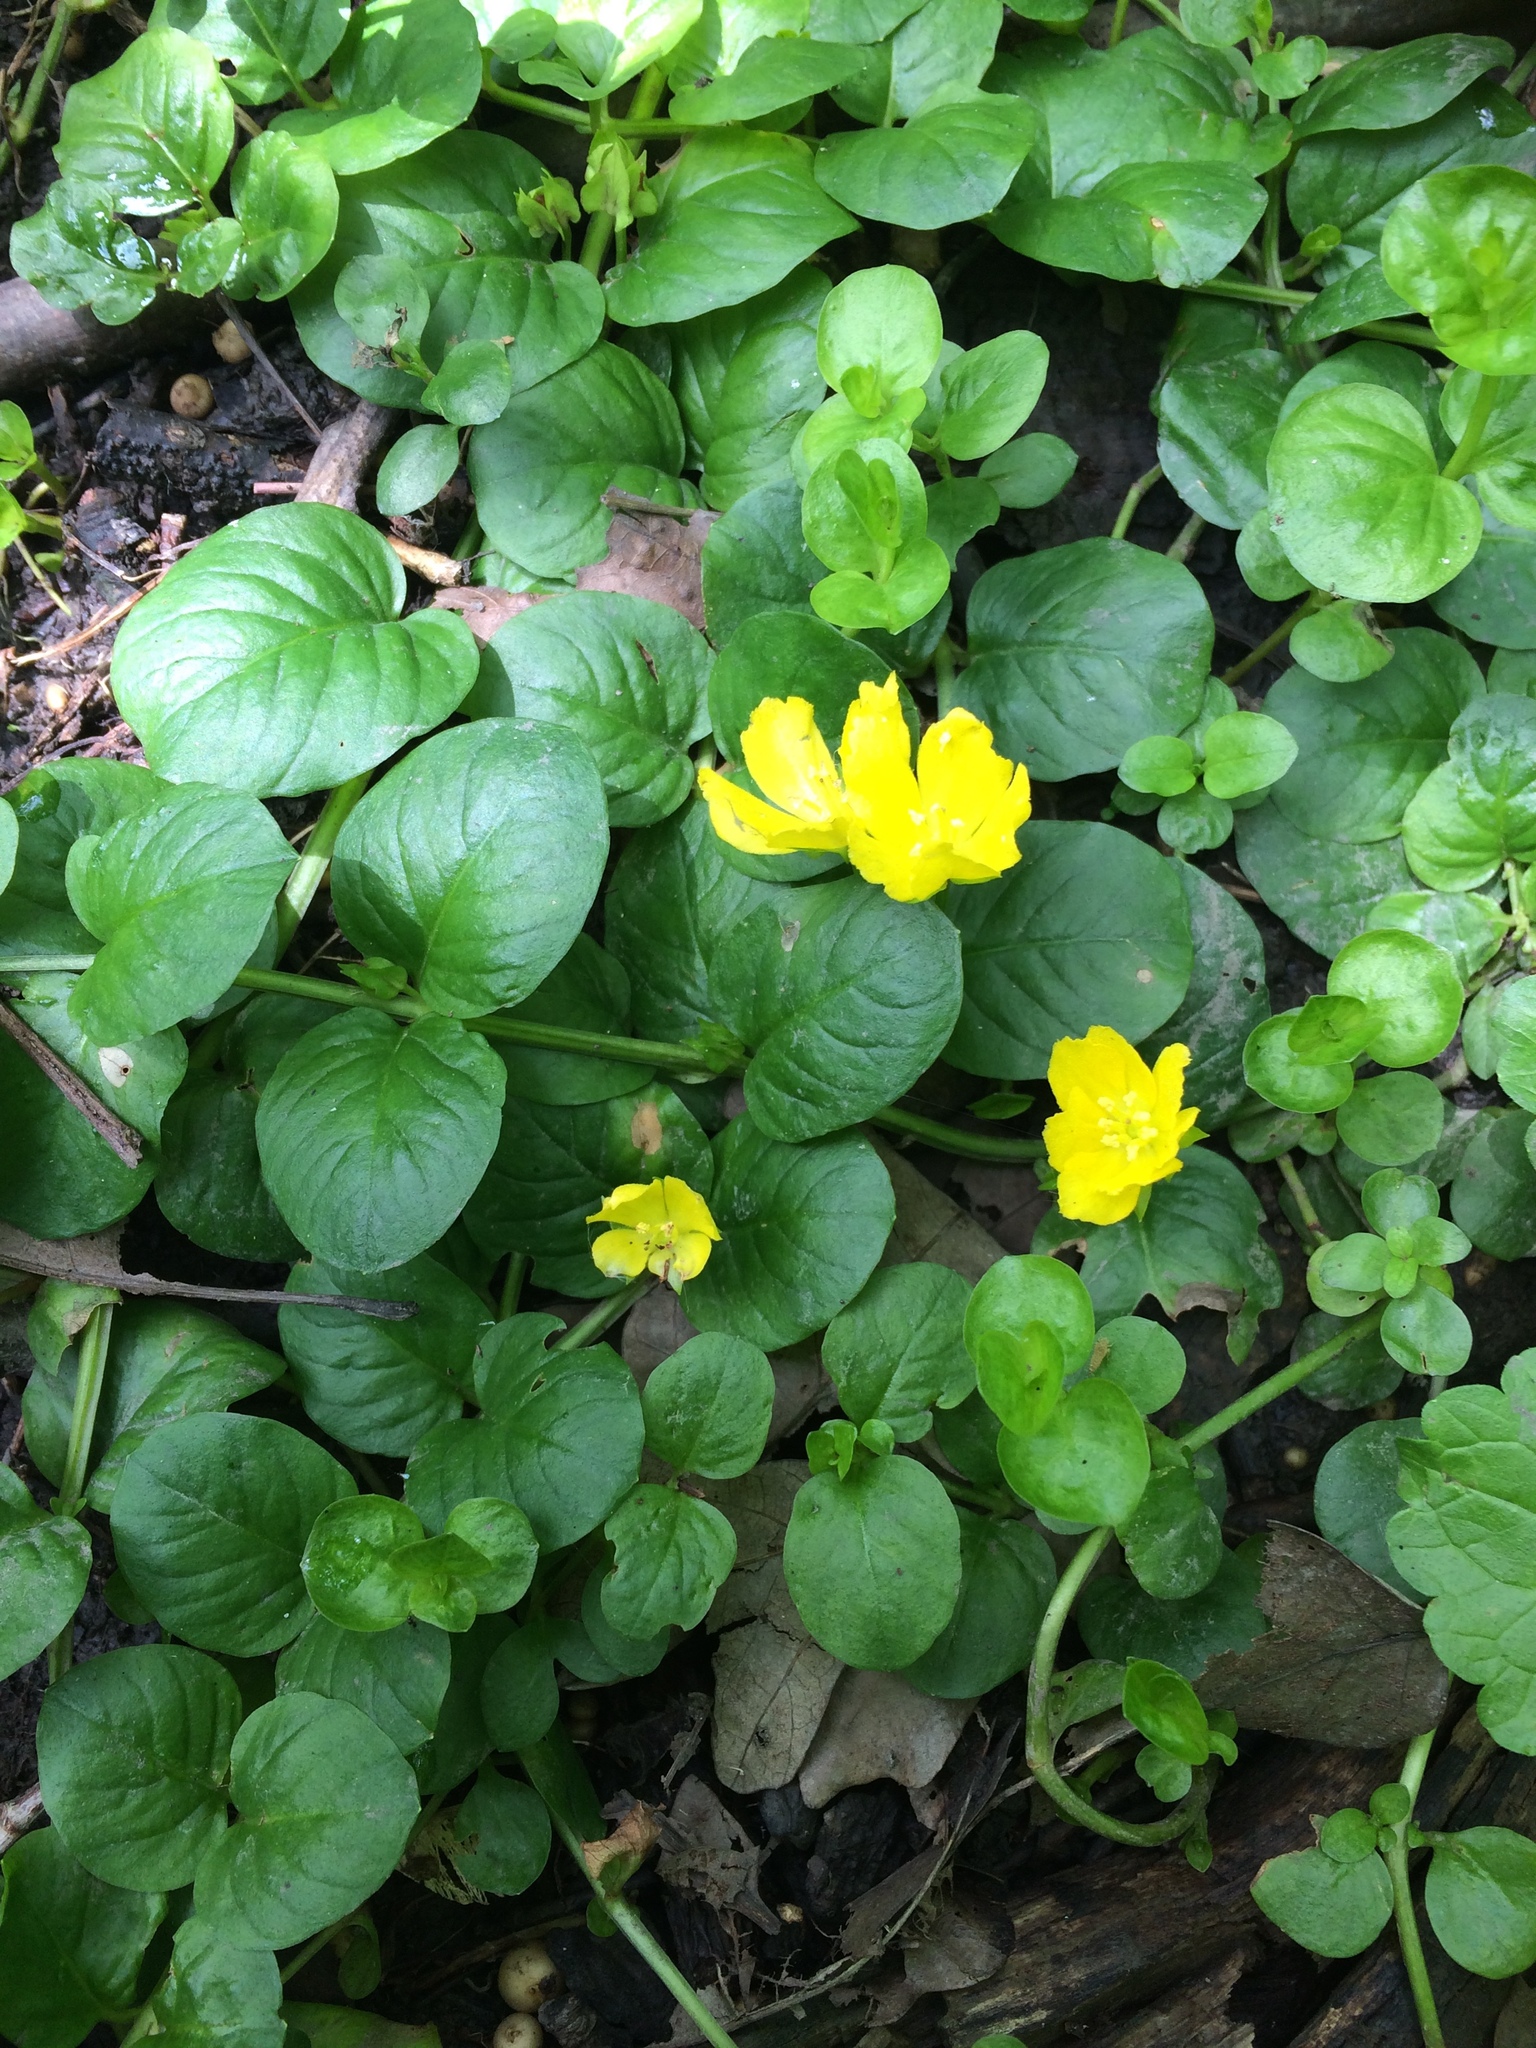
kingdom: Plantae
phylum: Tracheophyta
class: Magnoliopsida
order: Ericales
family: Primulaceae
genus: Lysimachia
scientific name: Lysimachia nummularia
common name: Moneywort
